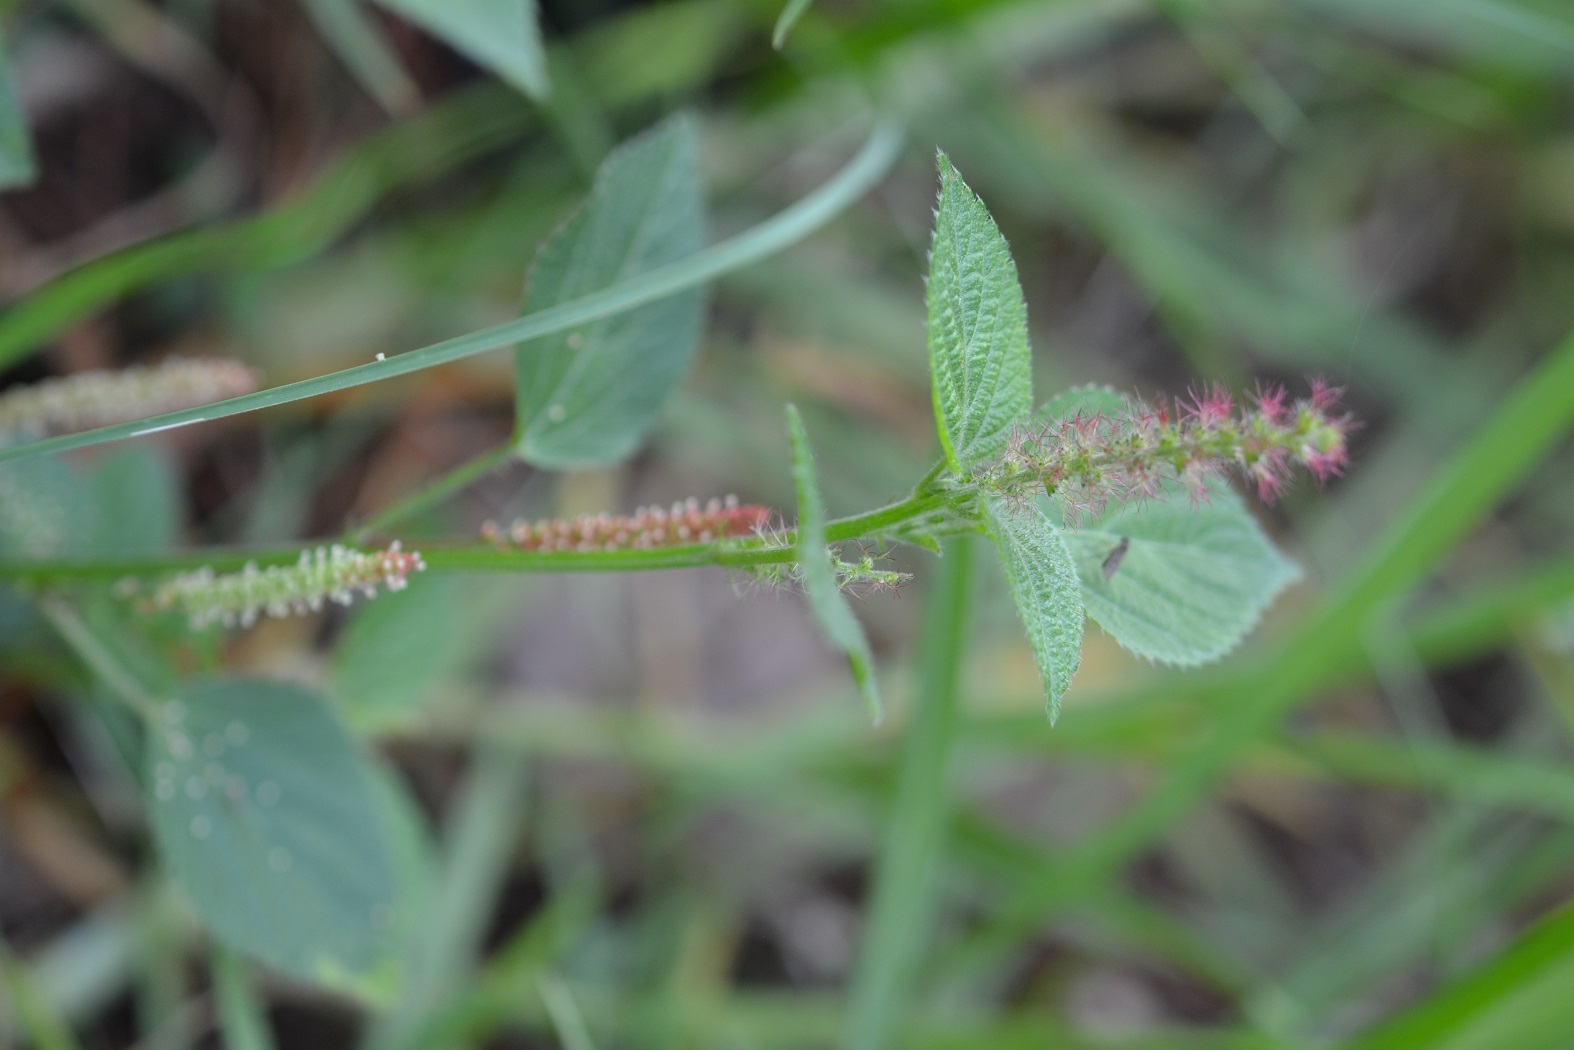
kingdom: Plantae
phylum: Tracheophyta
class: Magnoliopsida
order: Malpighiales
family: Euphorbiaceae
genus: Acalypha
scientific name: Acalypha phleoides
